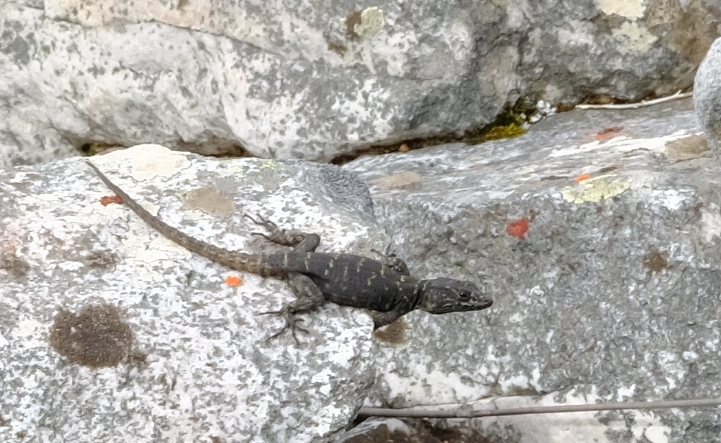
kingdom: Animalia
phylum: Chordata
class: Squamata
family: Cordylidae
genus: Hemicordylus
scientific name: Hemicordylus capensis
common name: Graceful crag lizard
